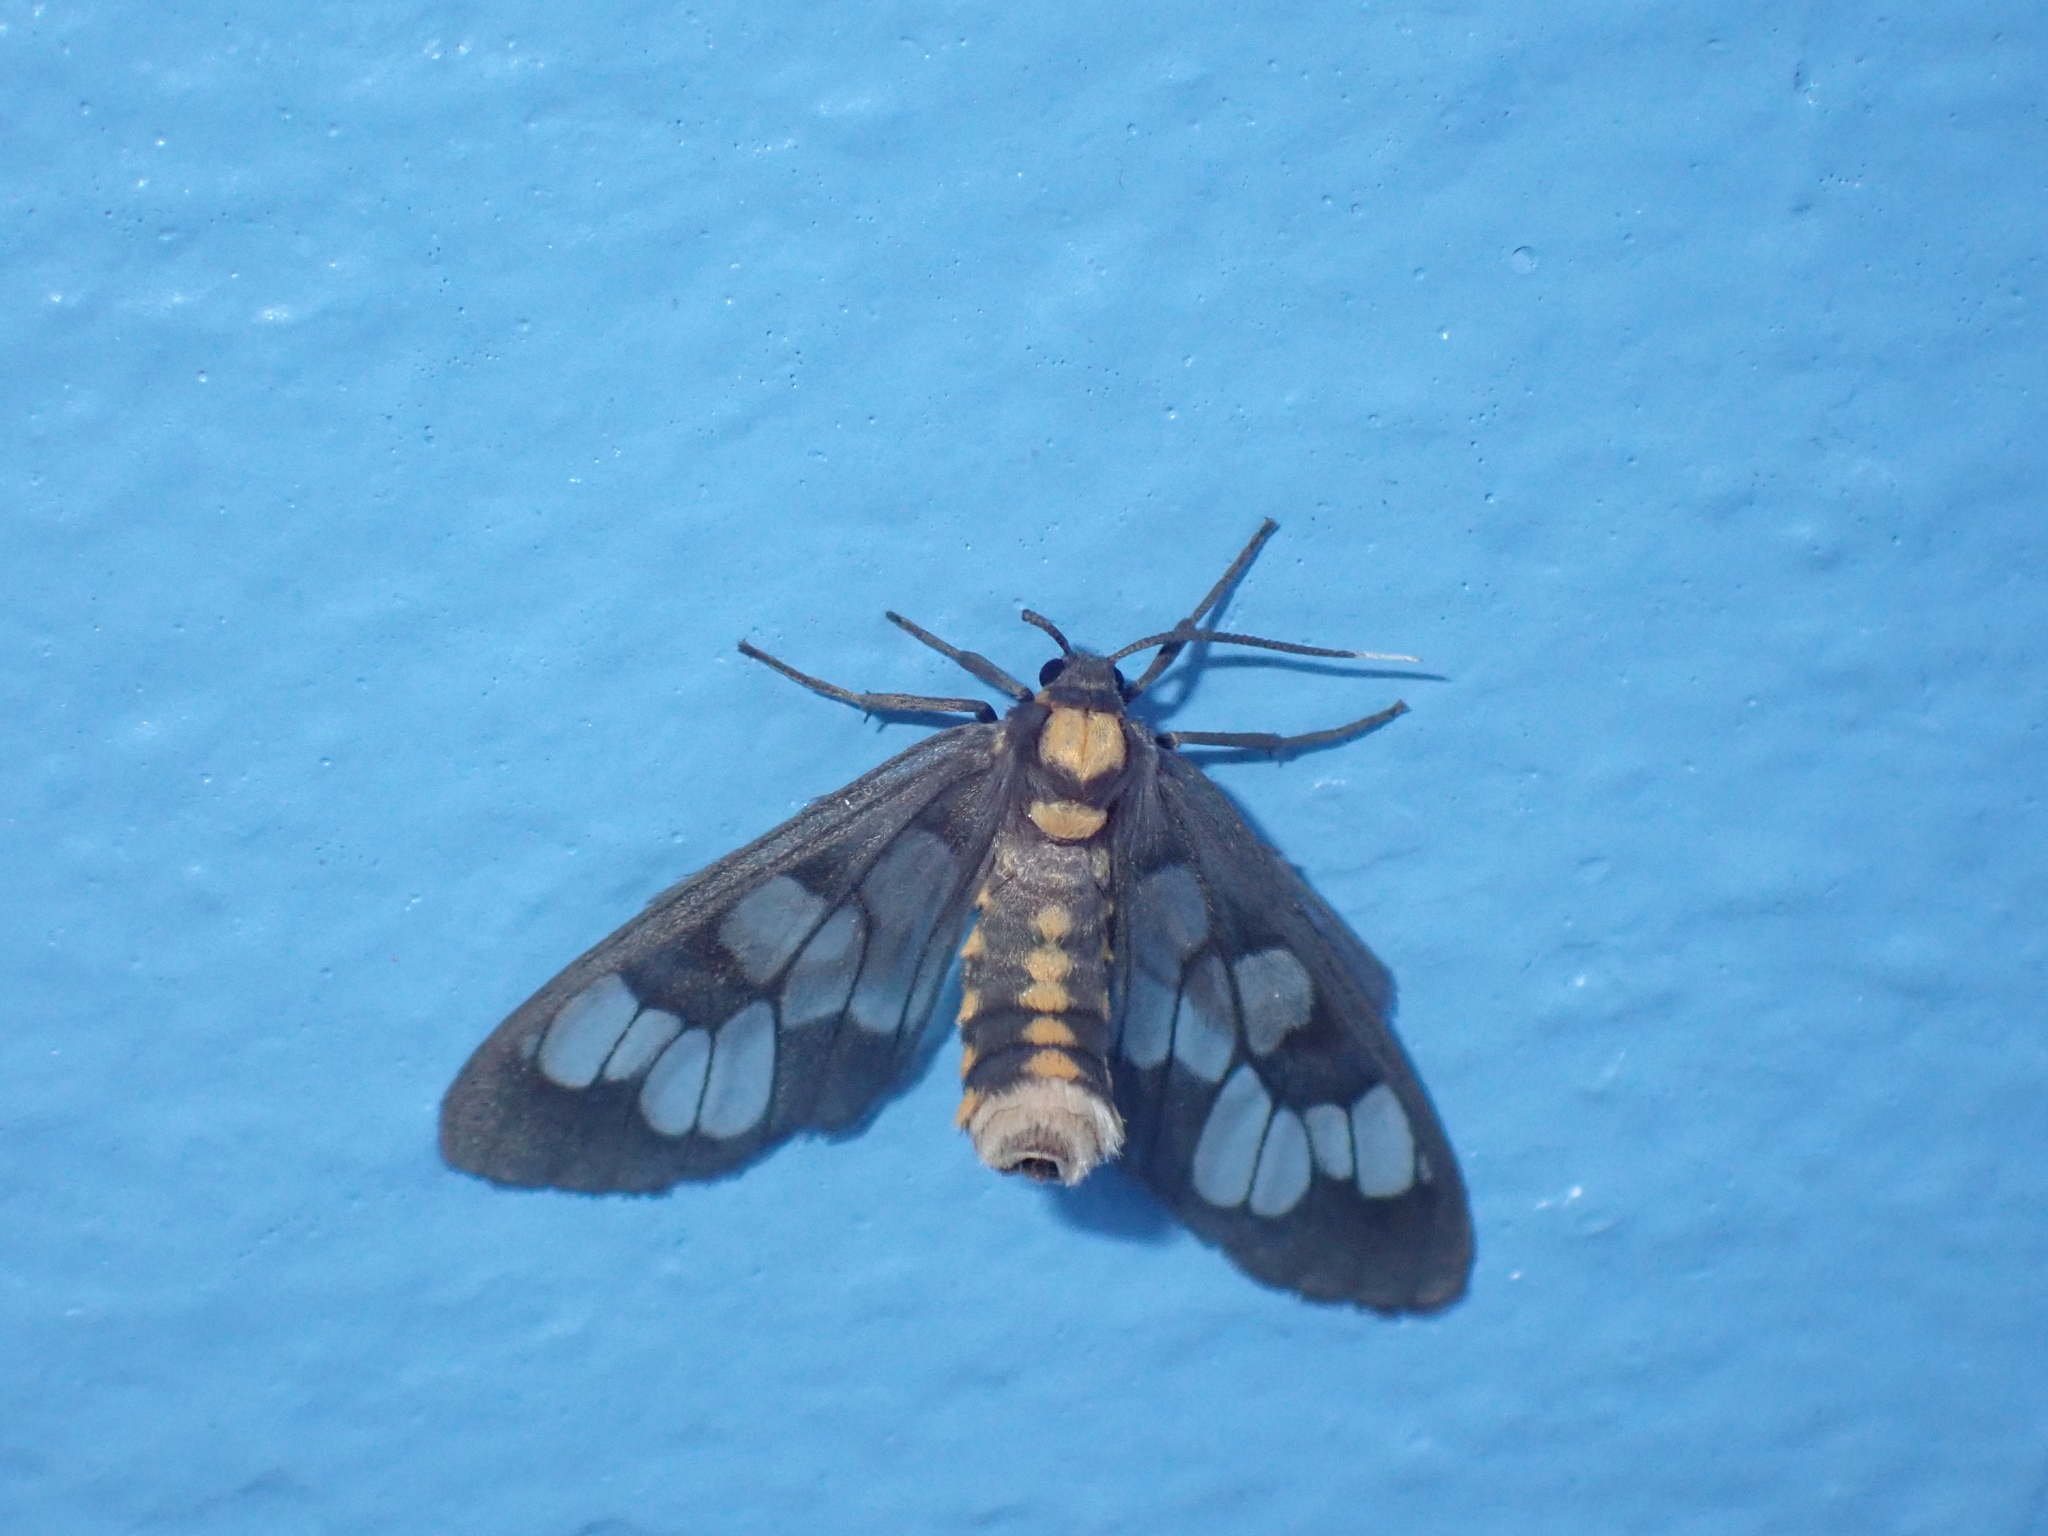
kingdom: Animalia
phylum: Arthropoda
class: Insecta
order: Lepidoptera
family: Erebidae
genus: Eressa
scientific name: Eressa confinis
